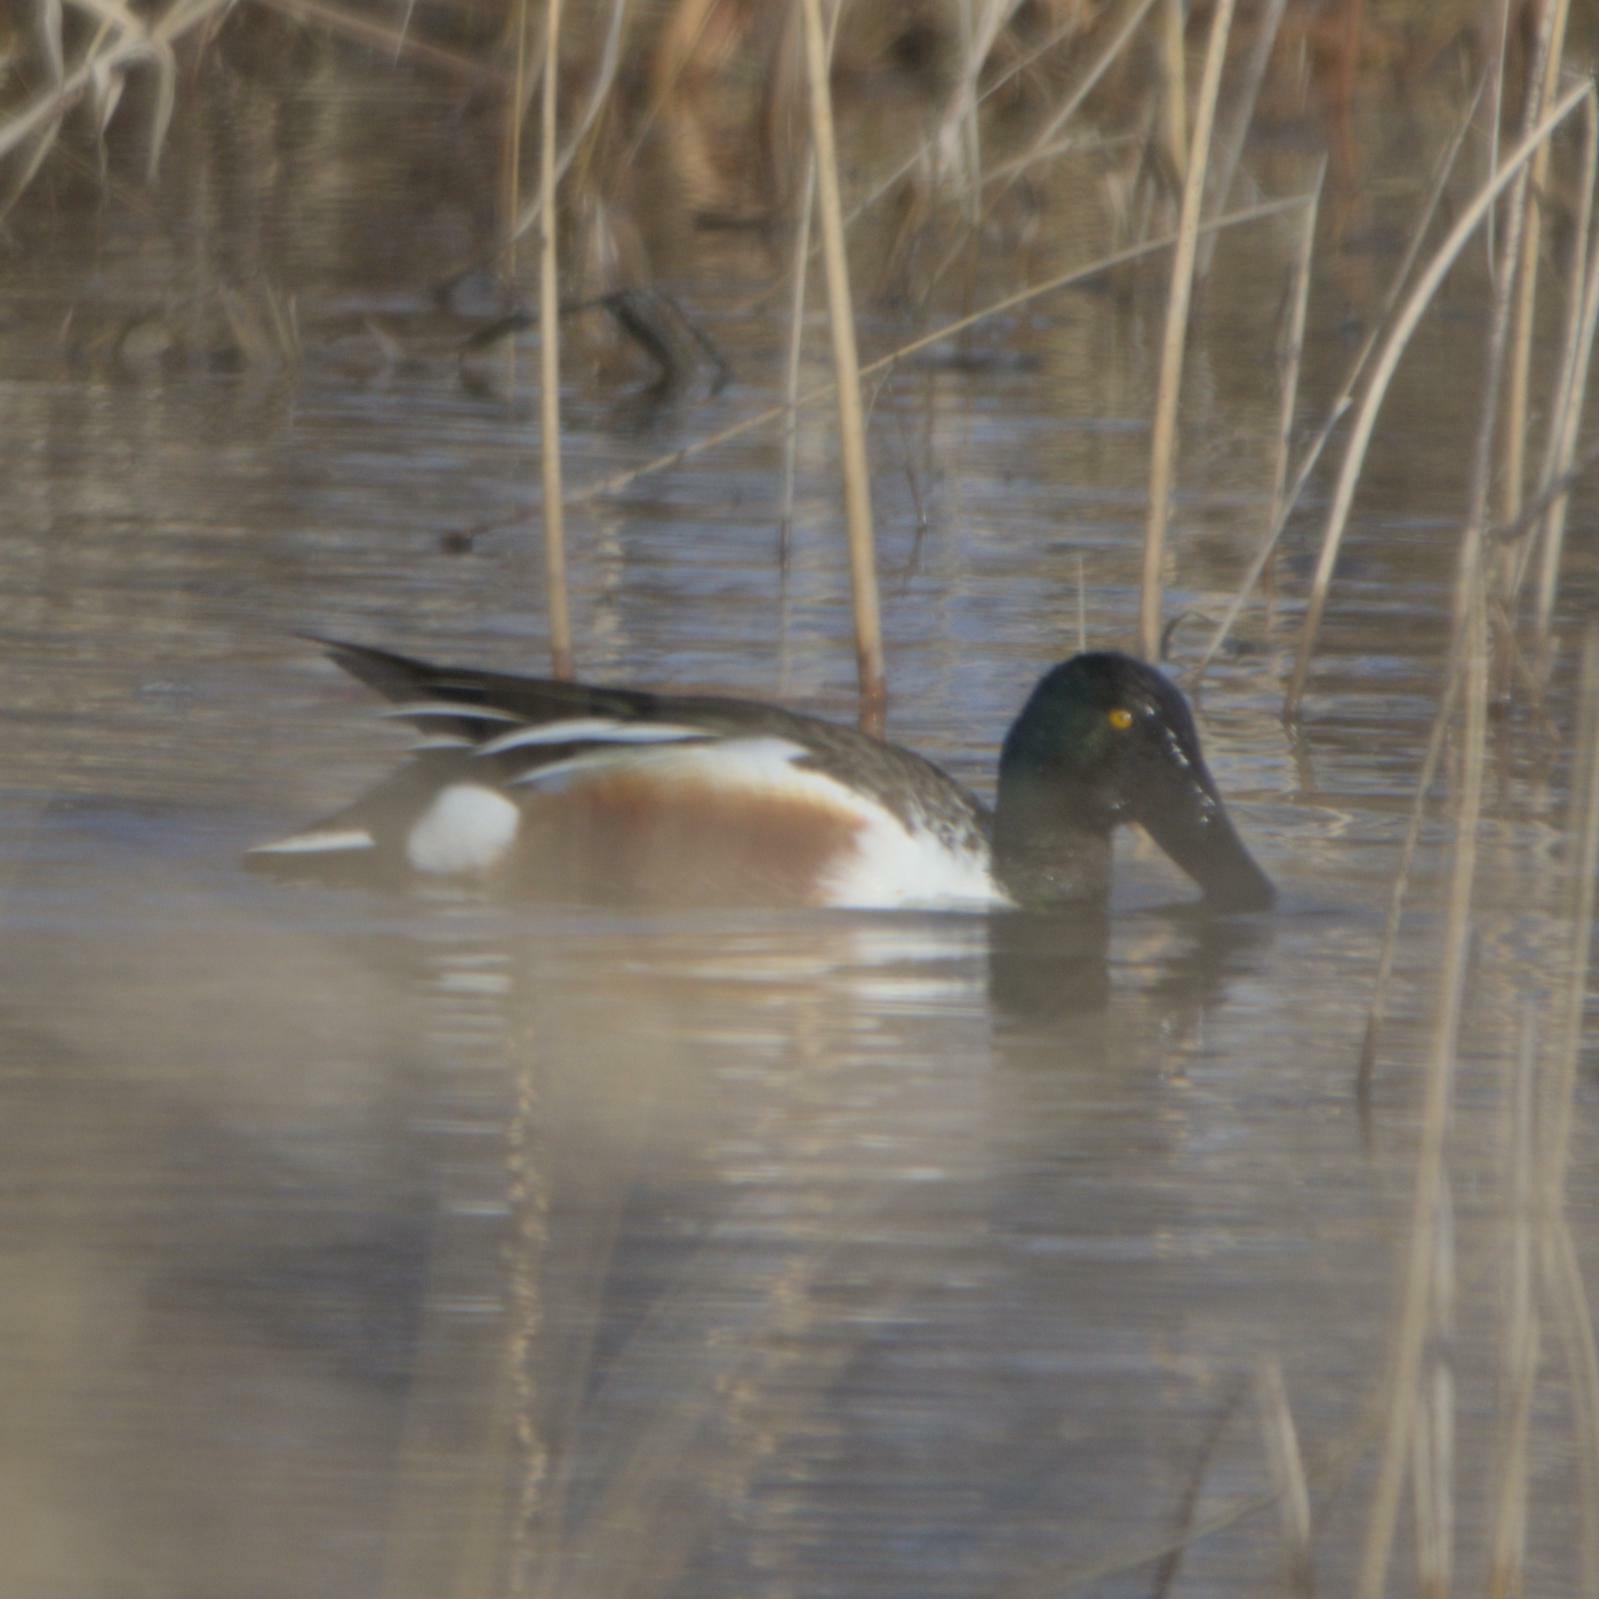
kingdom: Animalia
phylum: Chordata
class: Aves
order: Anseriformes
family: Anatidae
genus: Spatula
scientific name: Spatula clypeata
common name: Northern shoveler
